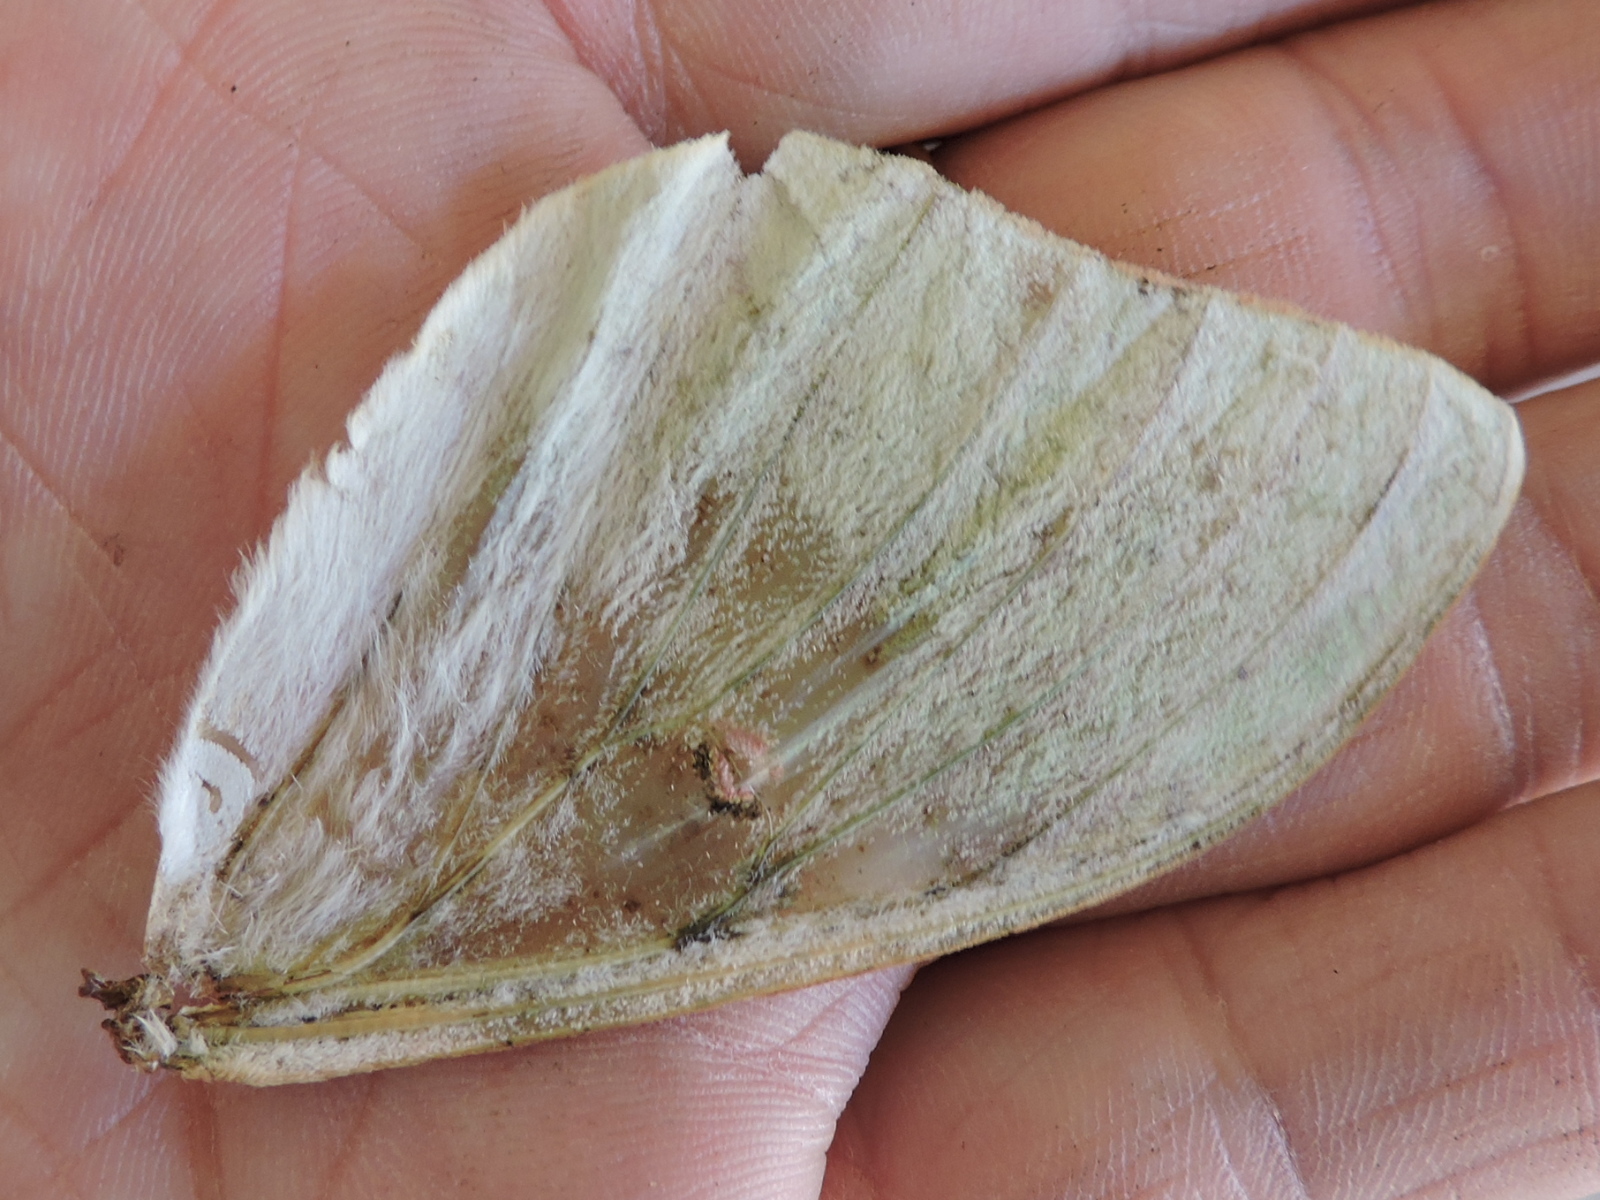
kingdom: Animalia
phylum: Arthropoda
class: Insecta
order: Lepidoptera
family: Saturniidae
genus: Actias
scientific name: Actias luna
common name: Luna moth
